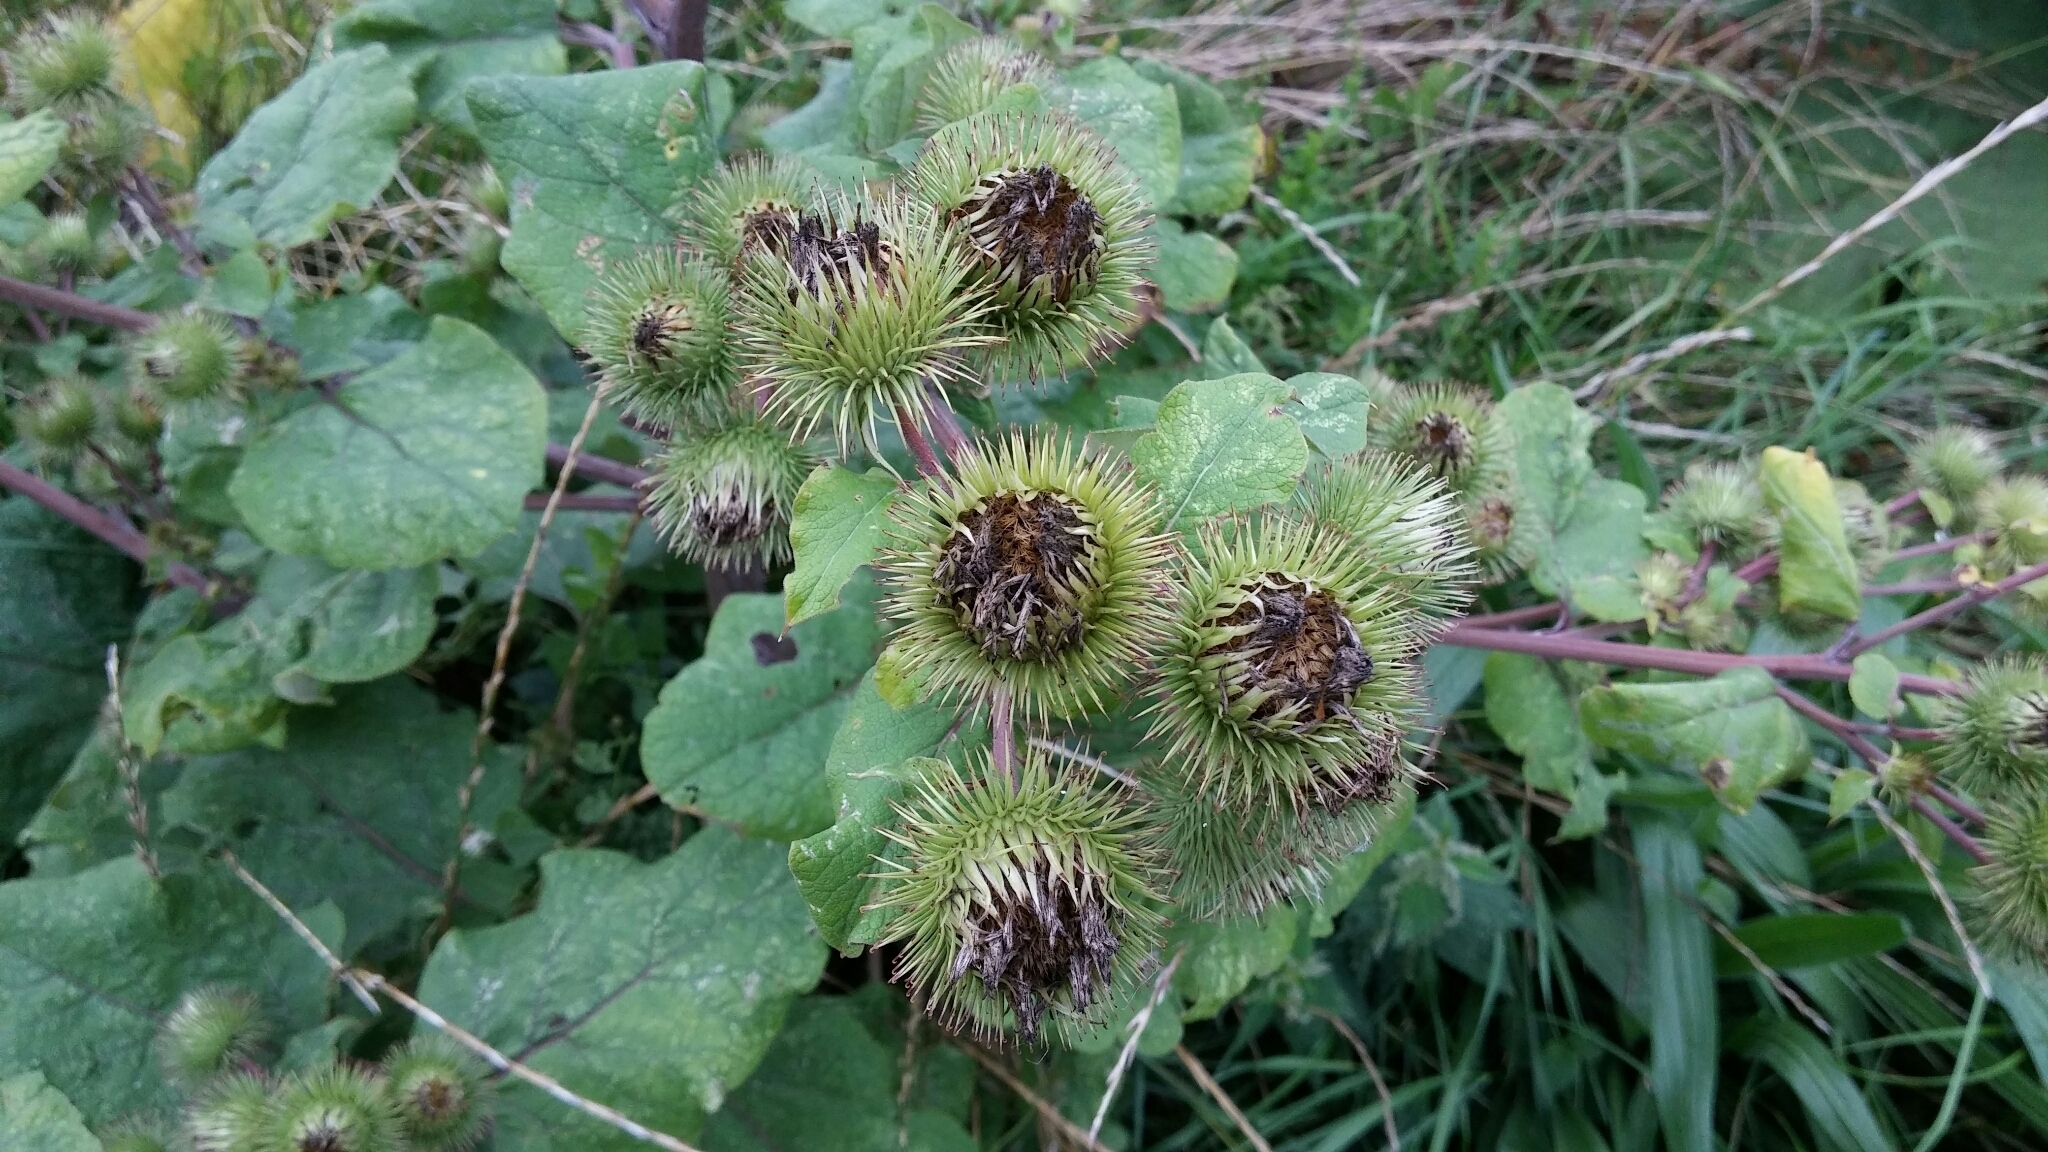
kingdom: Plantae
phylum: Tracheophyta
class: Magnoliopsida
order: Asterales
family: Asteraceae
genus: Arctium
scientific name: Arctium lappa
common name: Greater burdock
